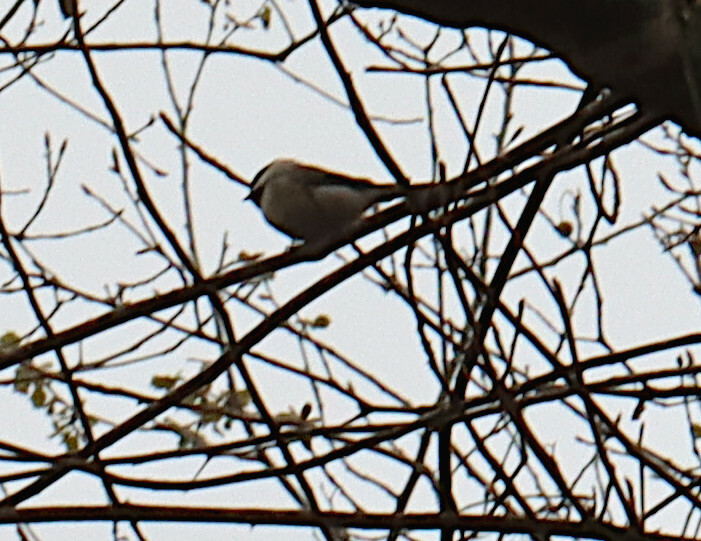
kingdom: Animalia
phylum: Chordata
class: Aves
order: Passeriformes
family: Paridae
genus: Poecile
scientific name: Poecile carolinensis
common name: Carolina chickadee
